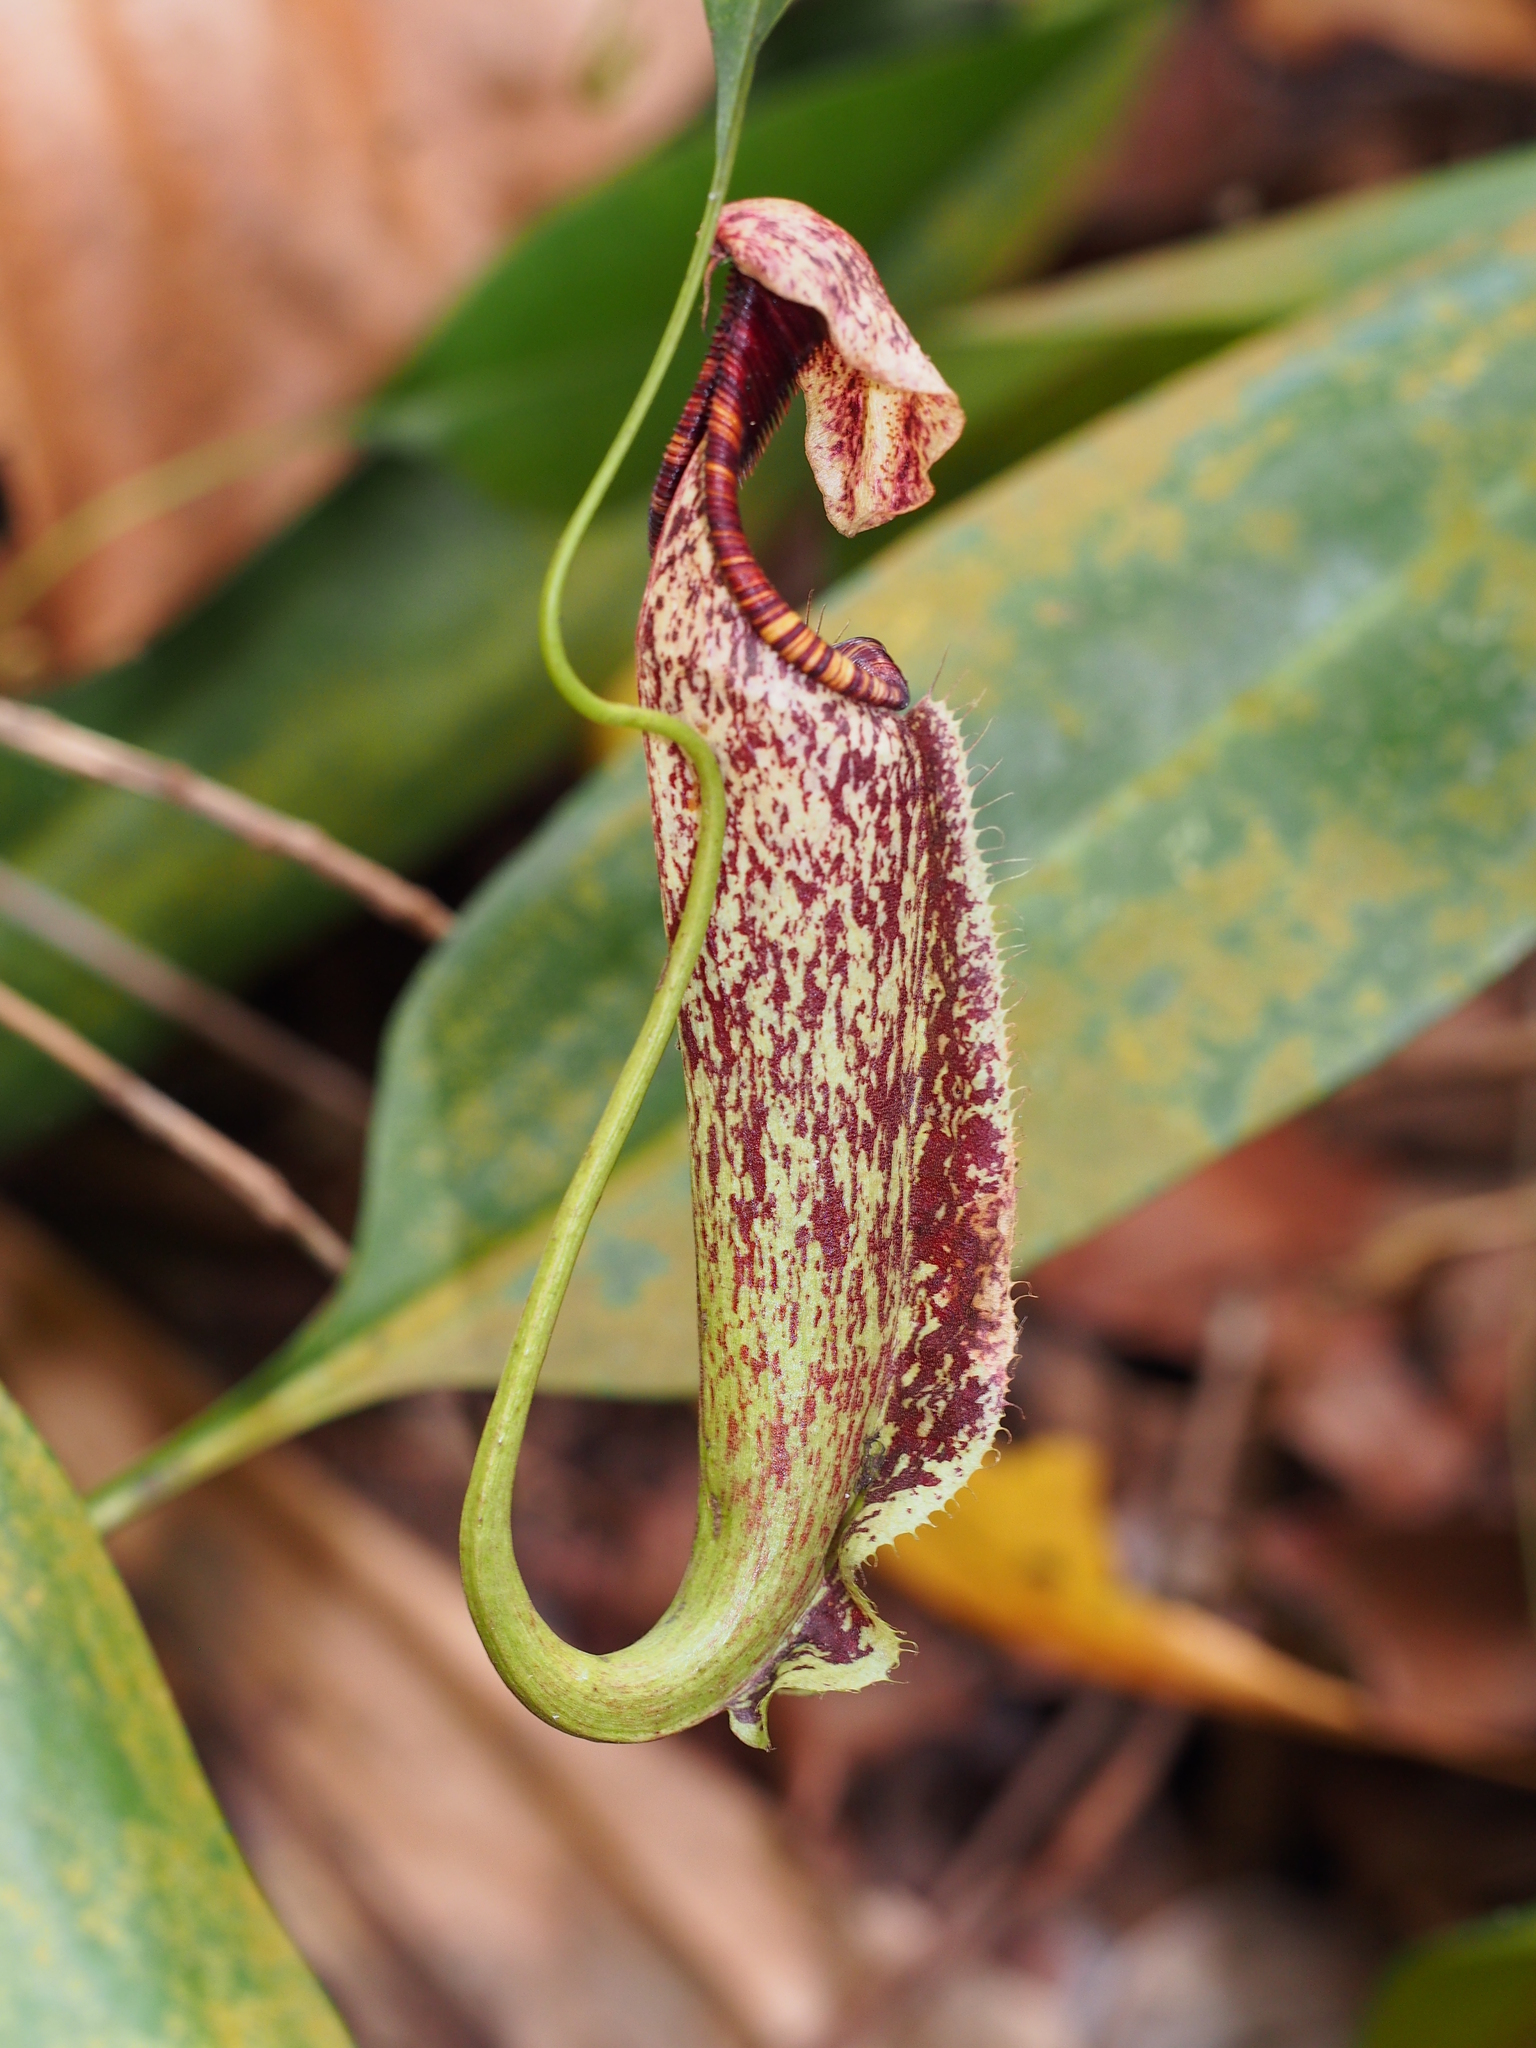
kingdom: Plantae
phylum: Tracheophyta
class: Magnoliopsida
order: Caryophyllales
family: Nepenthaceae
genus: Nepenthes
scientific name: Nepenthes rafflesiana
